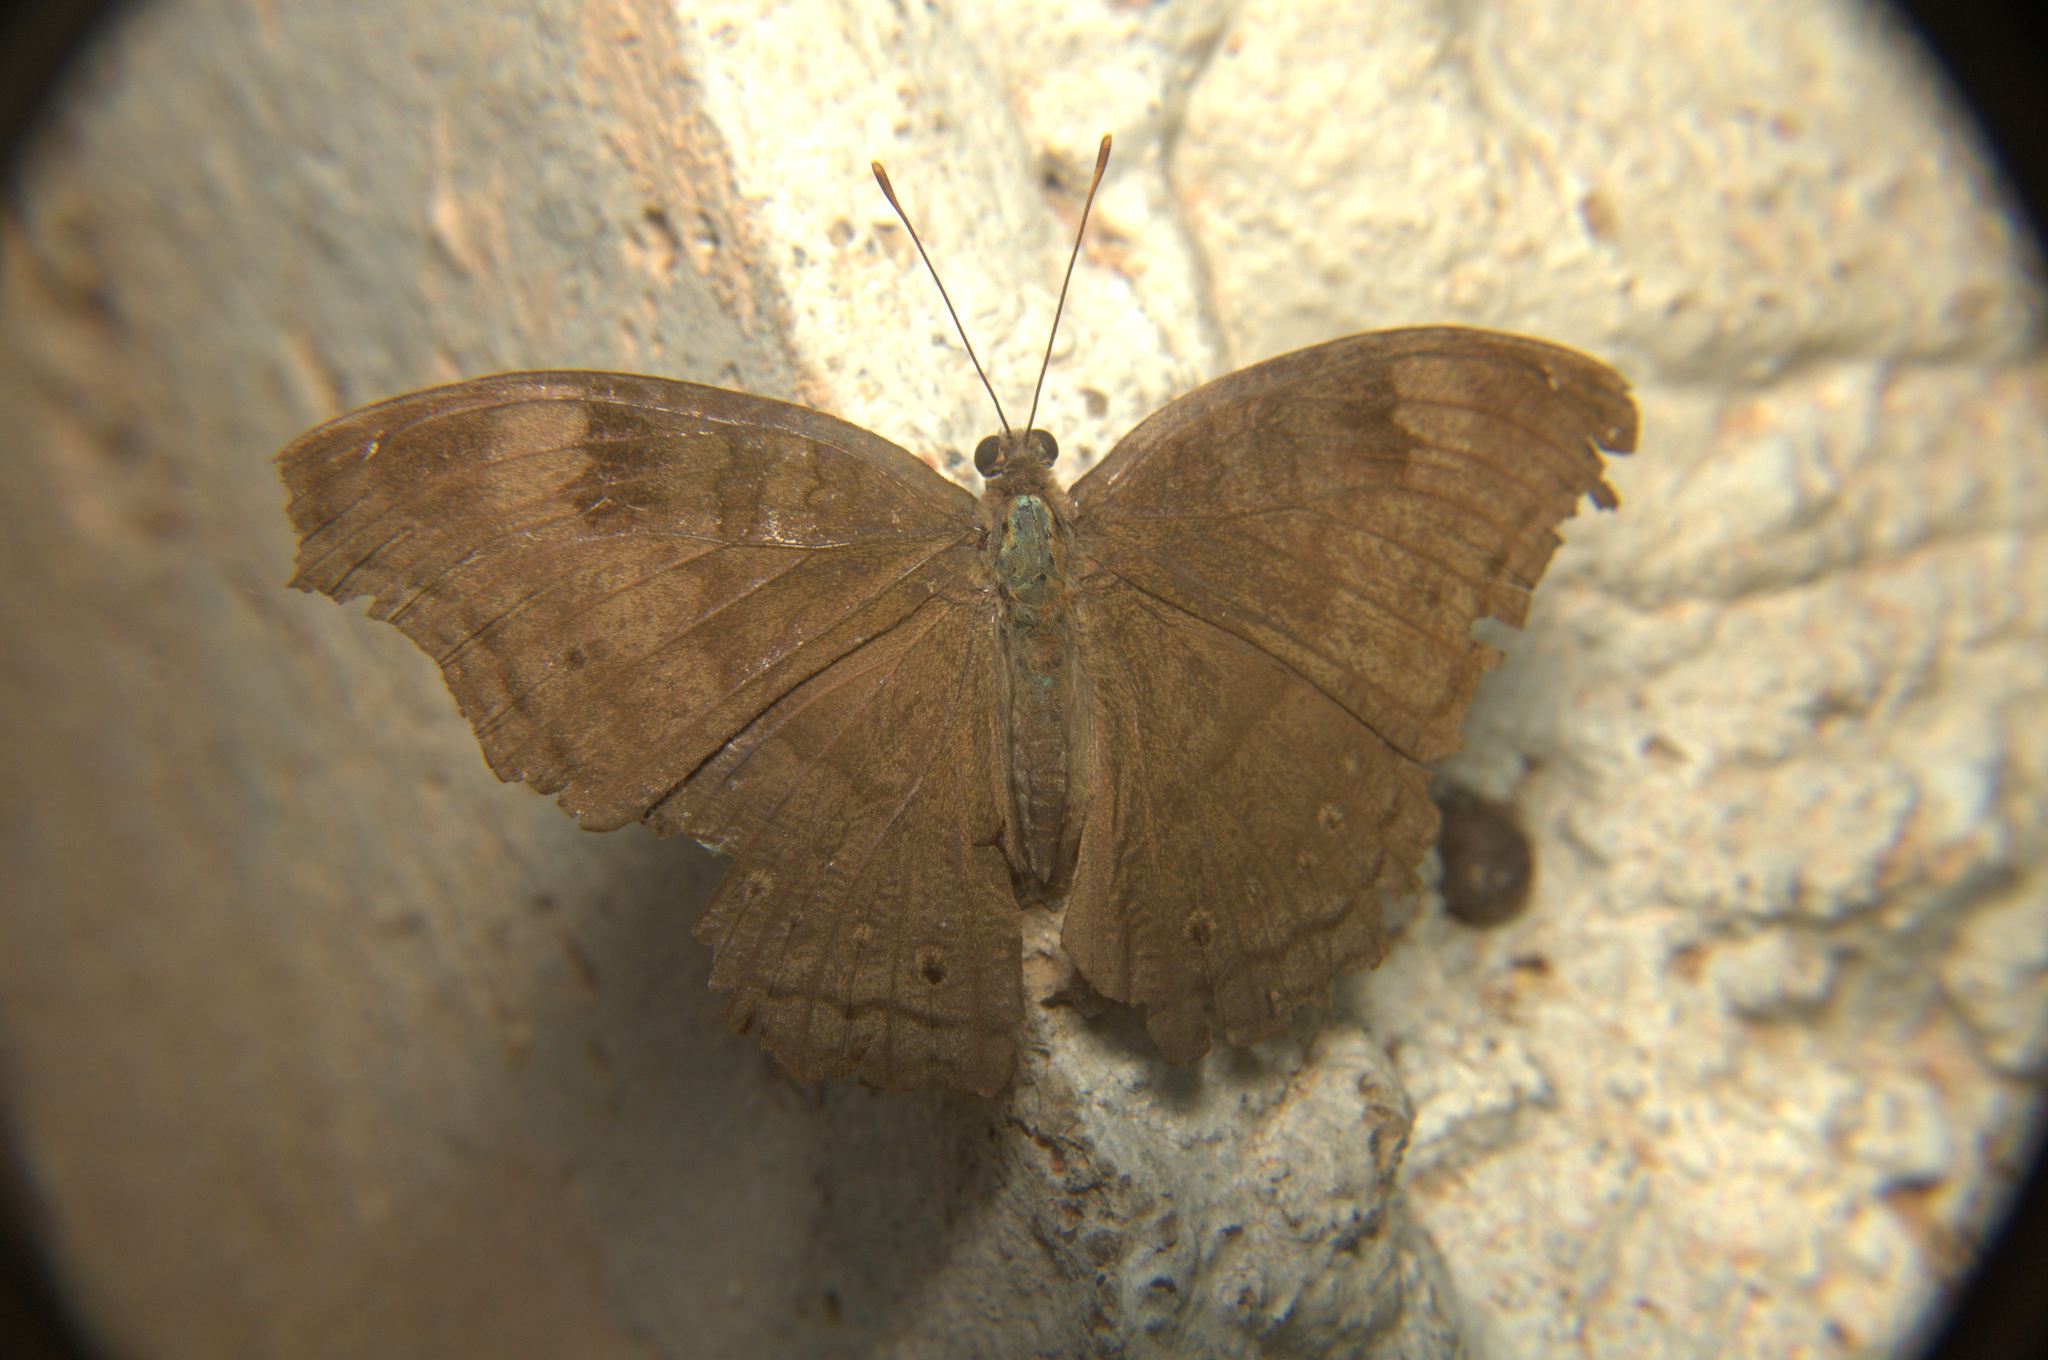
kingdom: Animalia
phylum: Arthropoda
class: Insecta
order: Lepidoptera
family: Nymphalidae
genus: Junonia
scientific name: Junonia iphita
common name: Chocolate pansy
